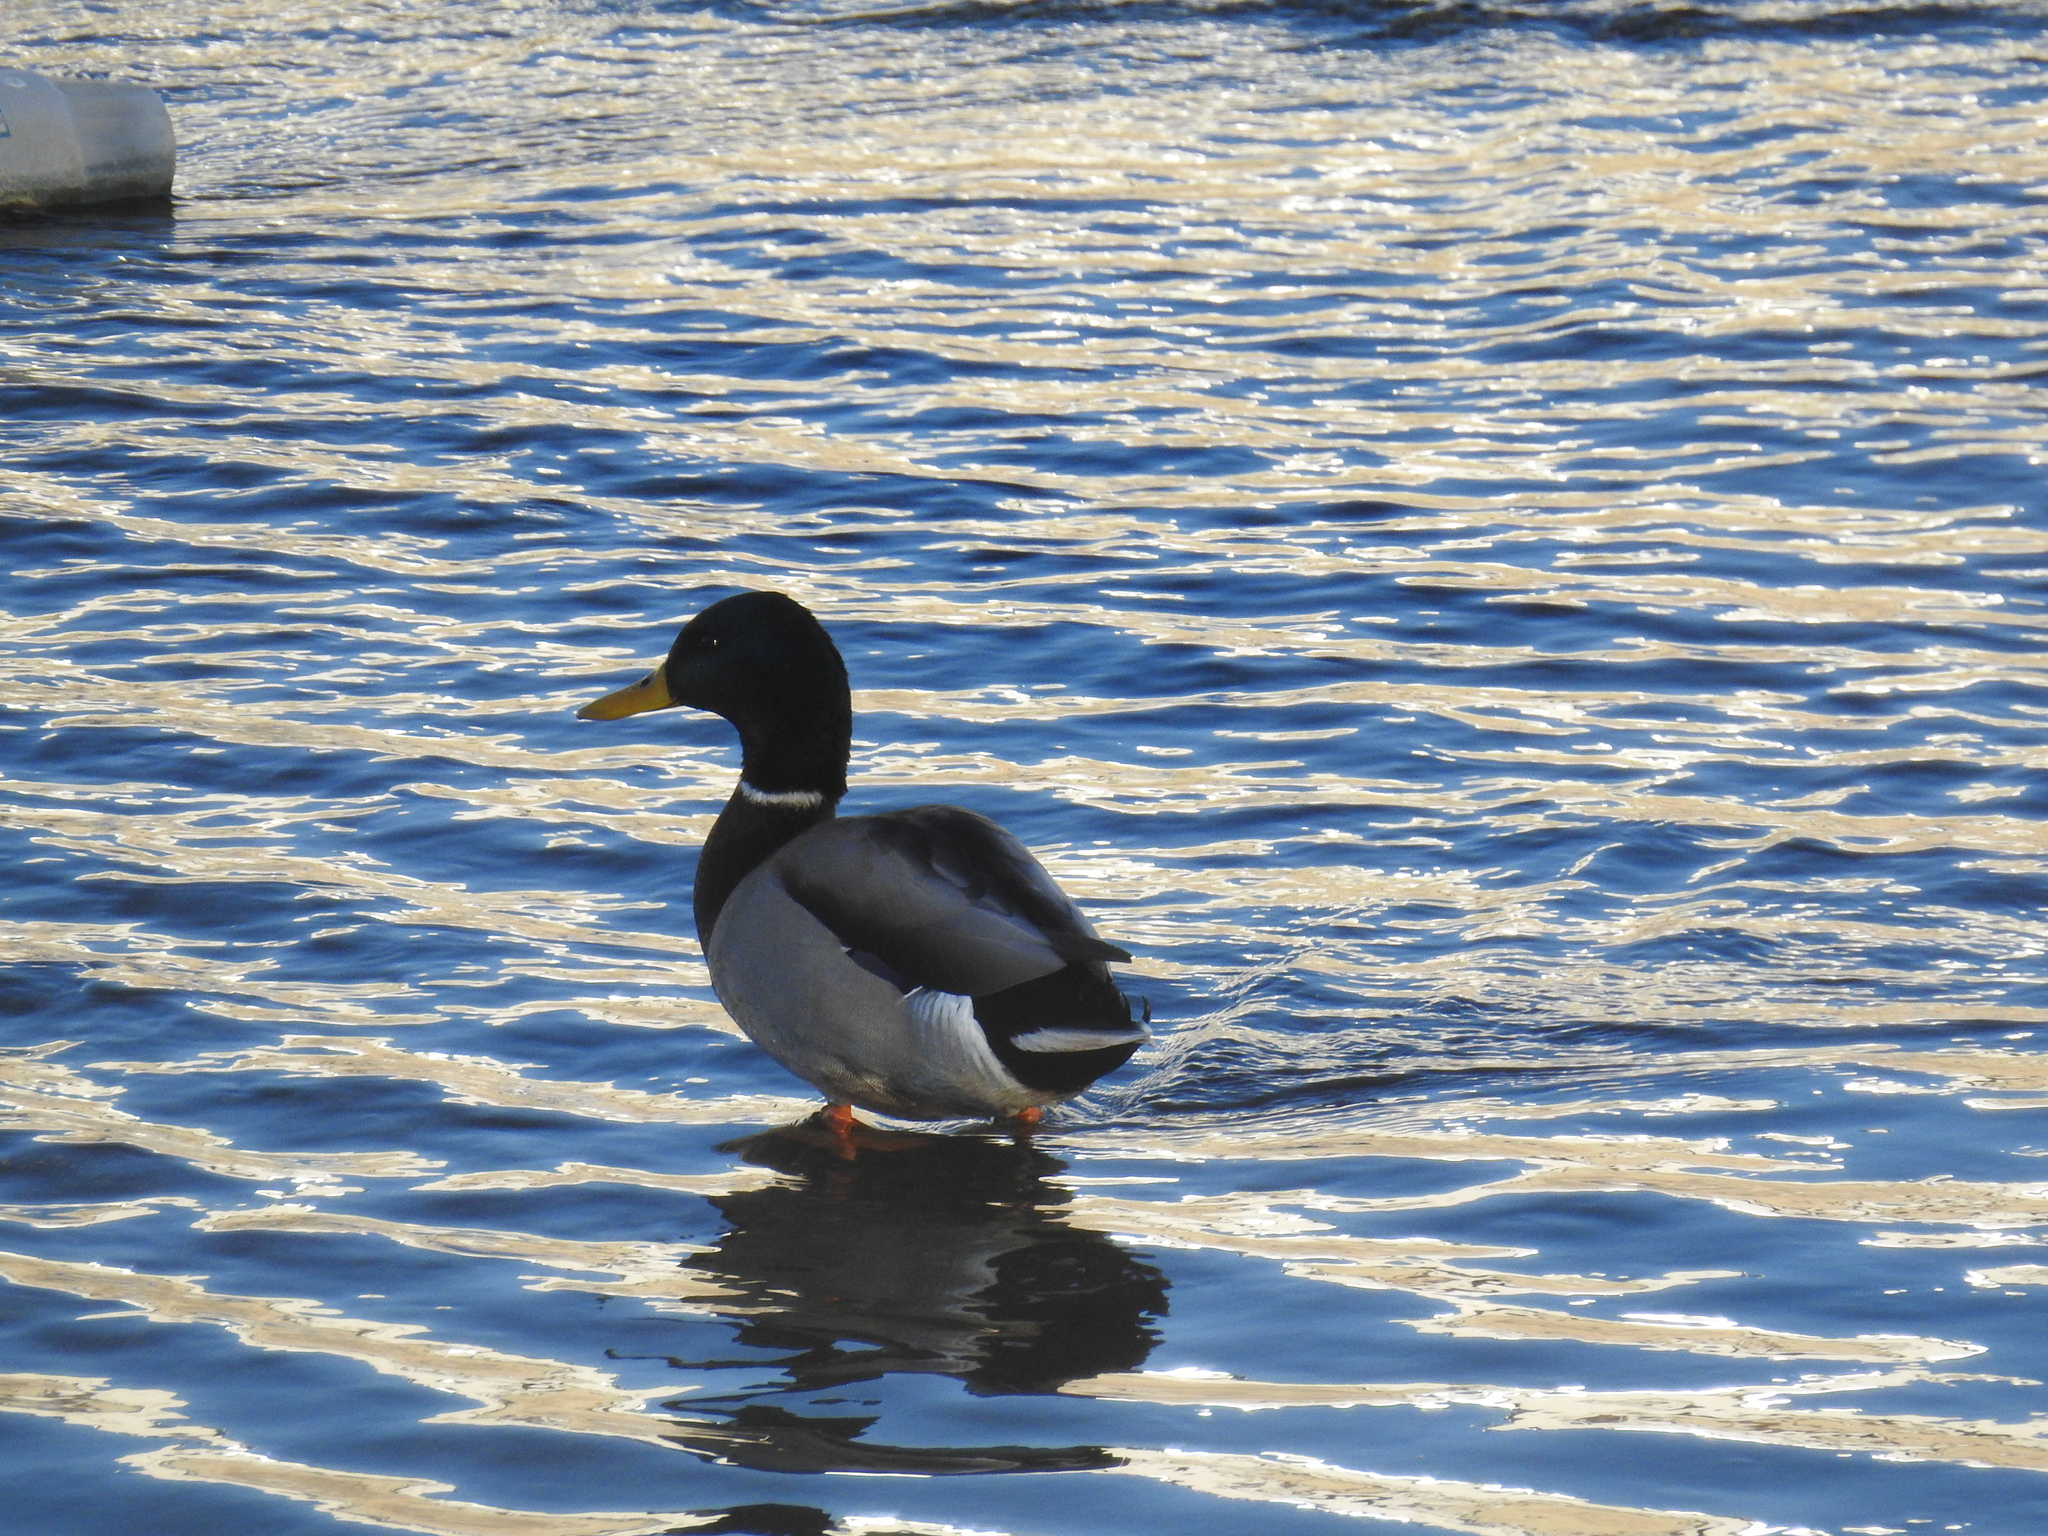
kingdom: Animalia
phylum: Chordata
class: Aves
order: Anseriformes
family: Anatidae
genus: Anas
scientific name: Anas platyrhynchos
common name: Mallard
